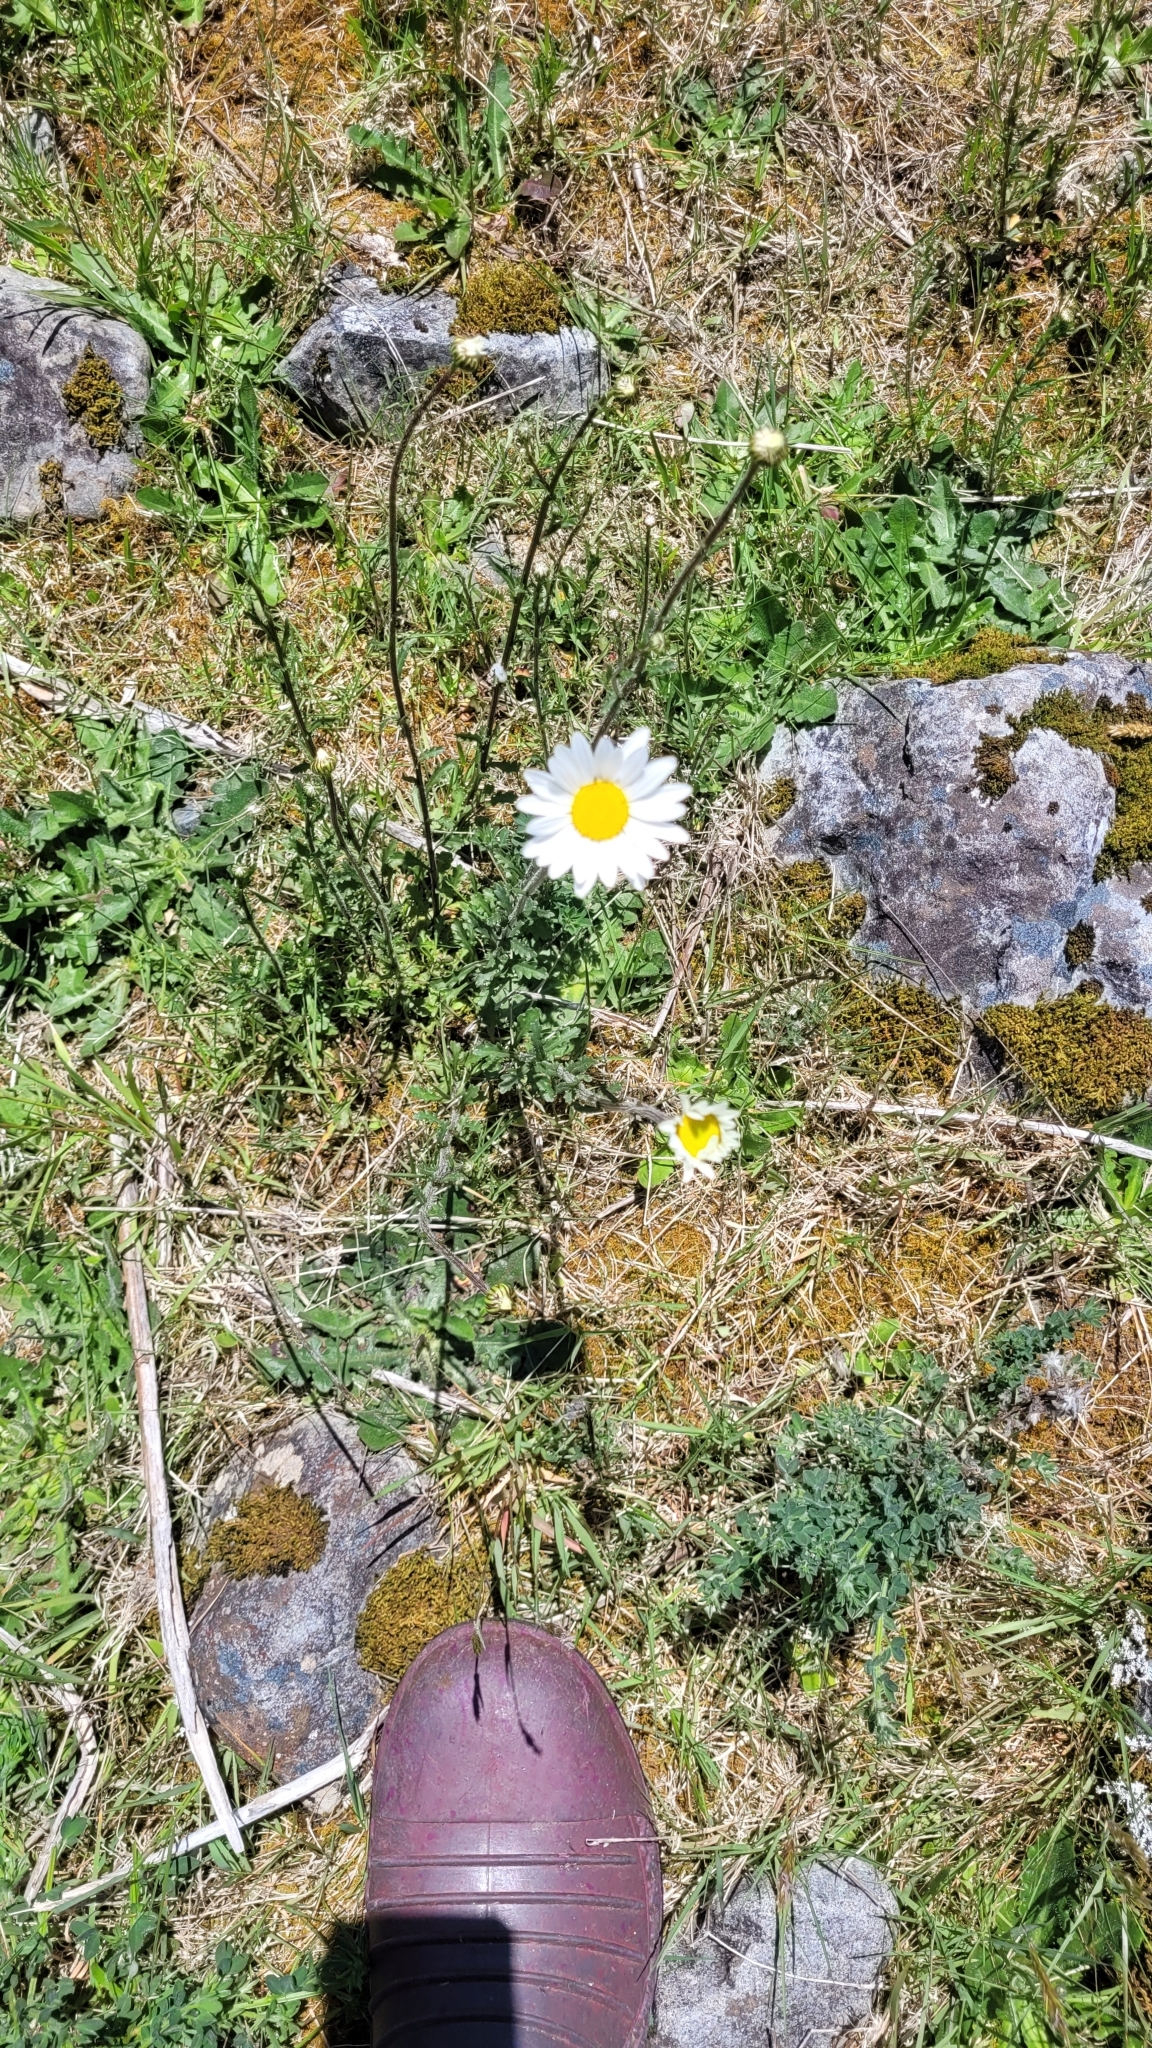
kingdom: Plantae
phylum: Tracheophyta
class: Magnoliopsida
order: Asterales
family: Asteraceae
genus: Leucanthemum
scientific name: Leucanthemum vulgare
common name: Oxeye daisy
